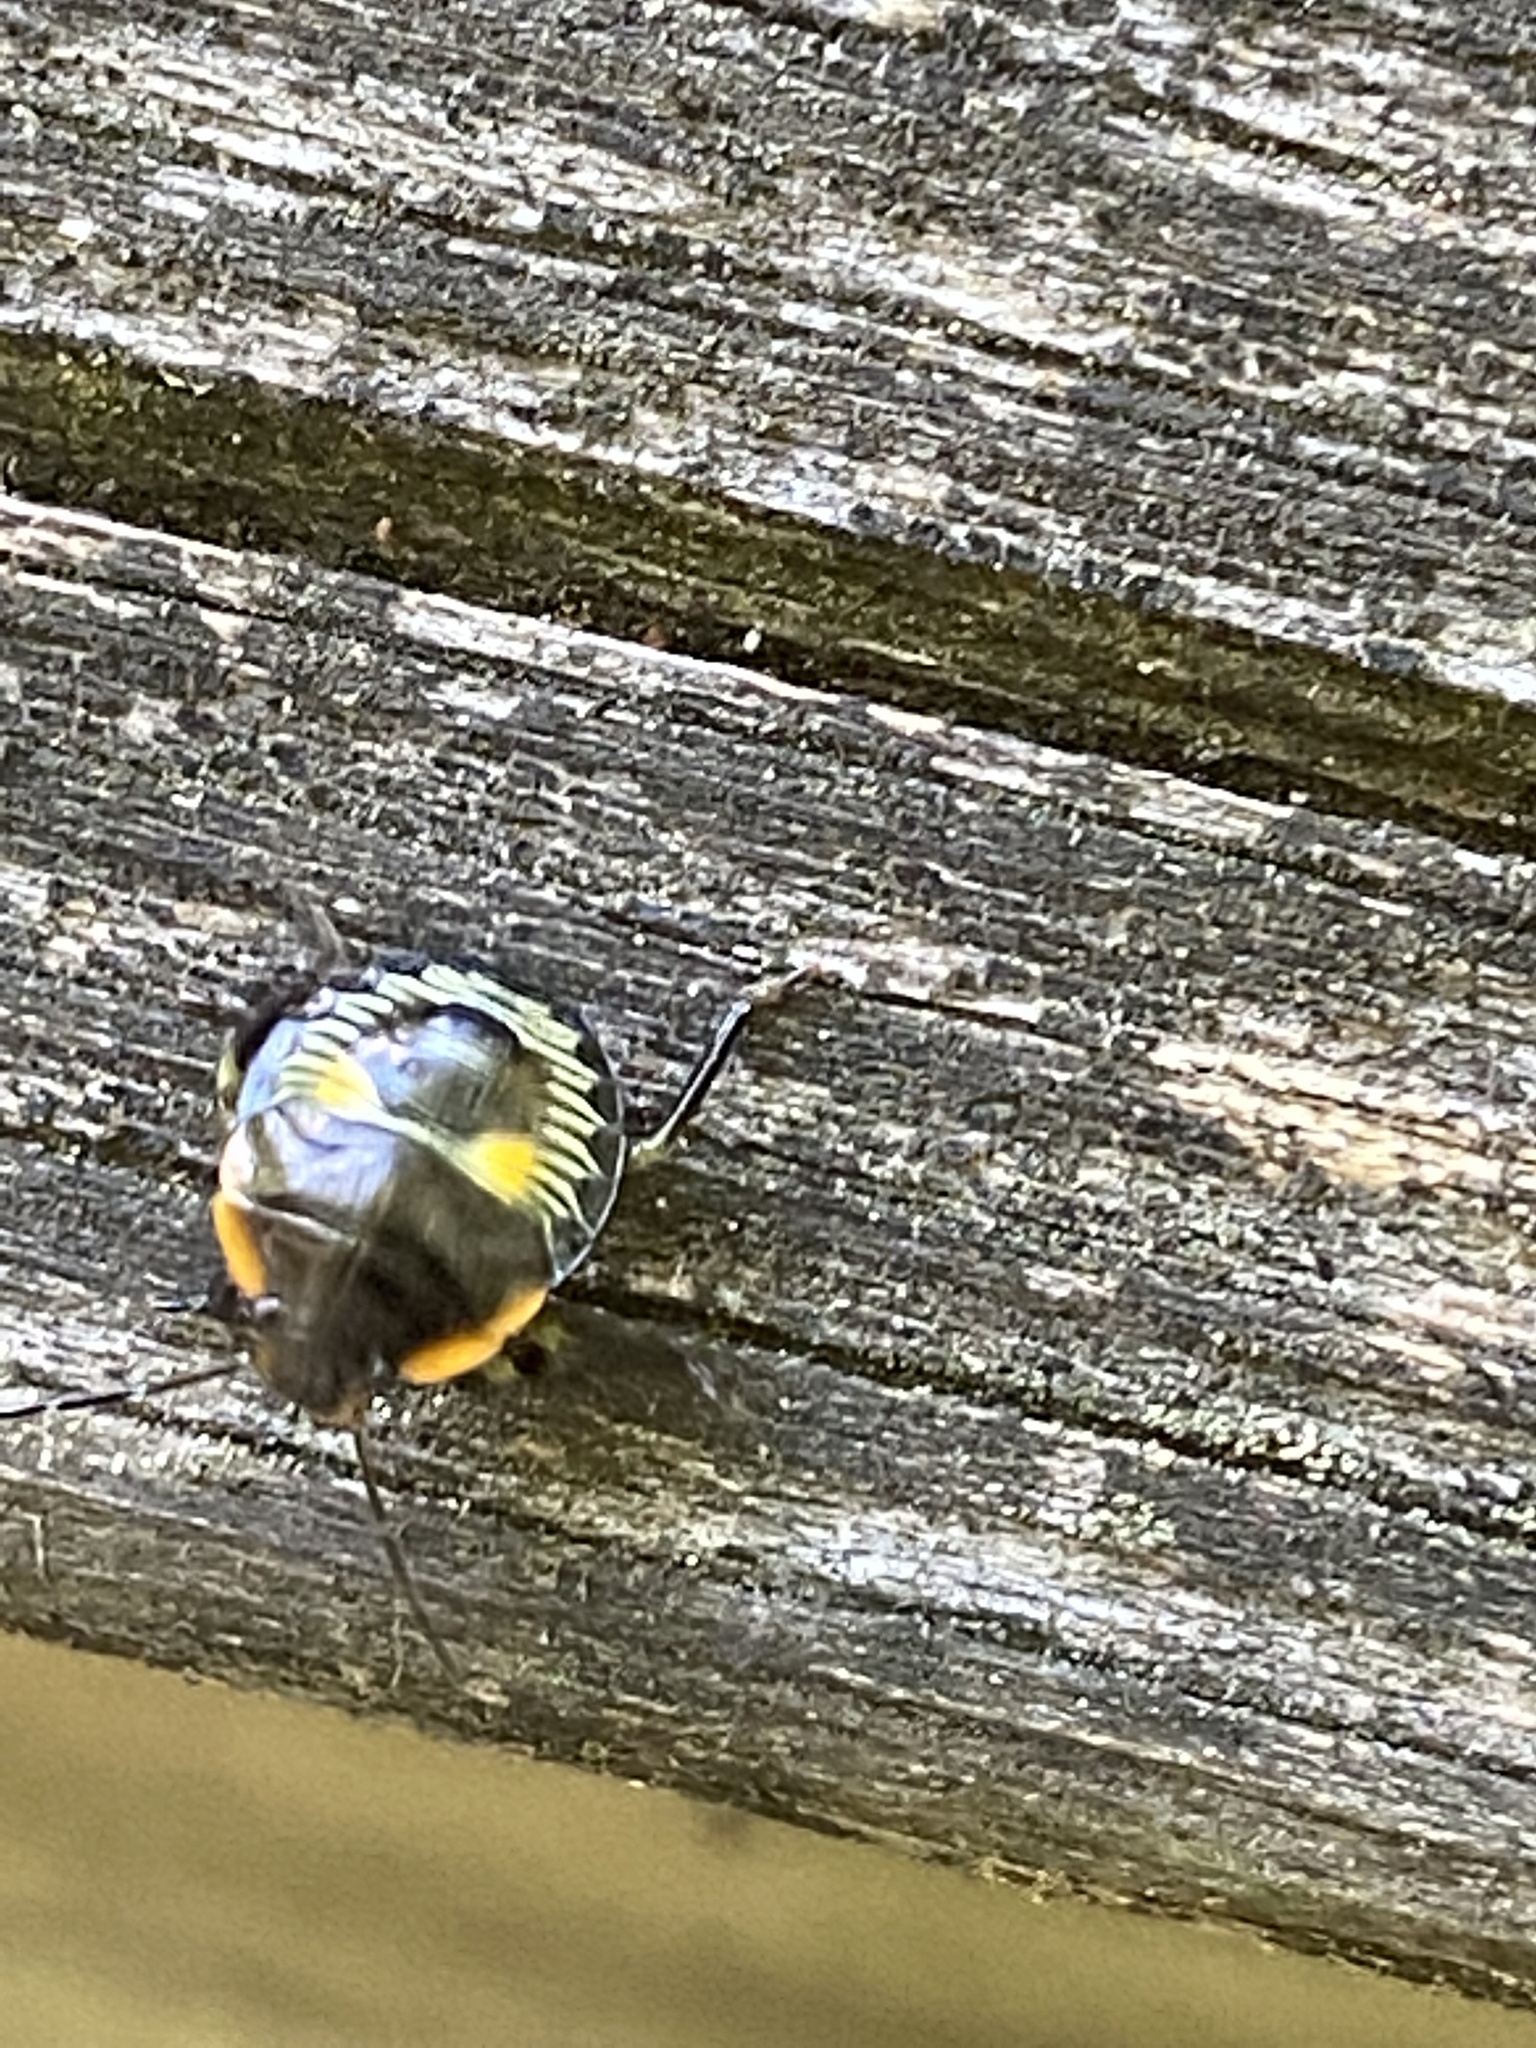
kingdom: Animalia
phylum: Arthropoda
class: Insecta
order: Hemiptera
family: Pentatomidae
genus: Chinavia
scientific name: Chinavia hilaris
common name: Green stink bug
